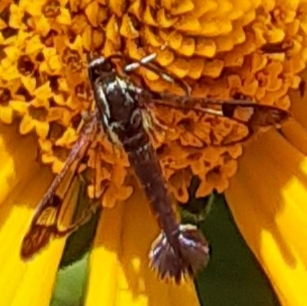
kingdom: Animalia
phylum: Arthropoda
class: Insecta
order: Lepidoptera
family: Sesiidae
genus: Carmenta
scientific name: Carmenta ithacae
